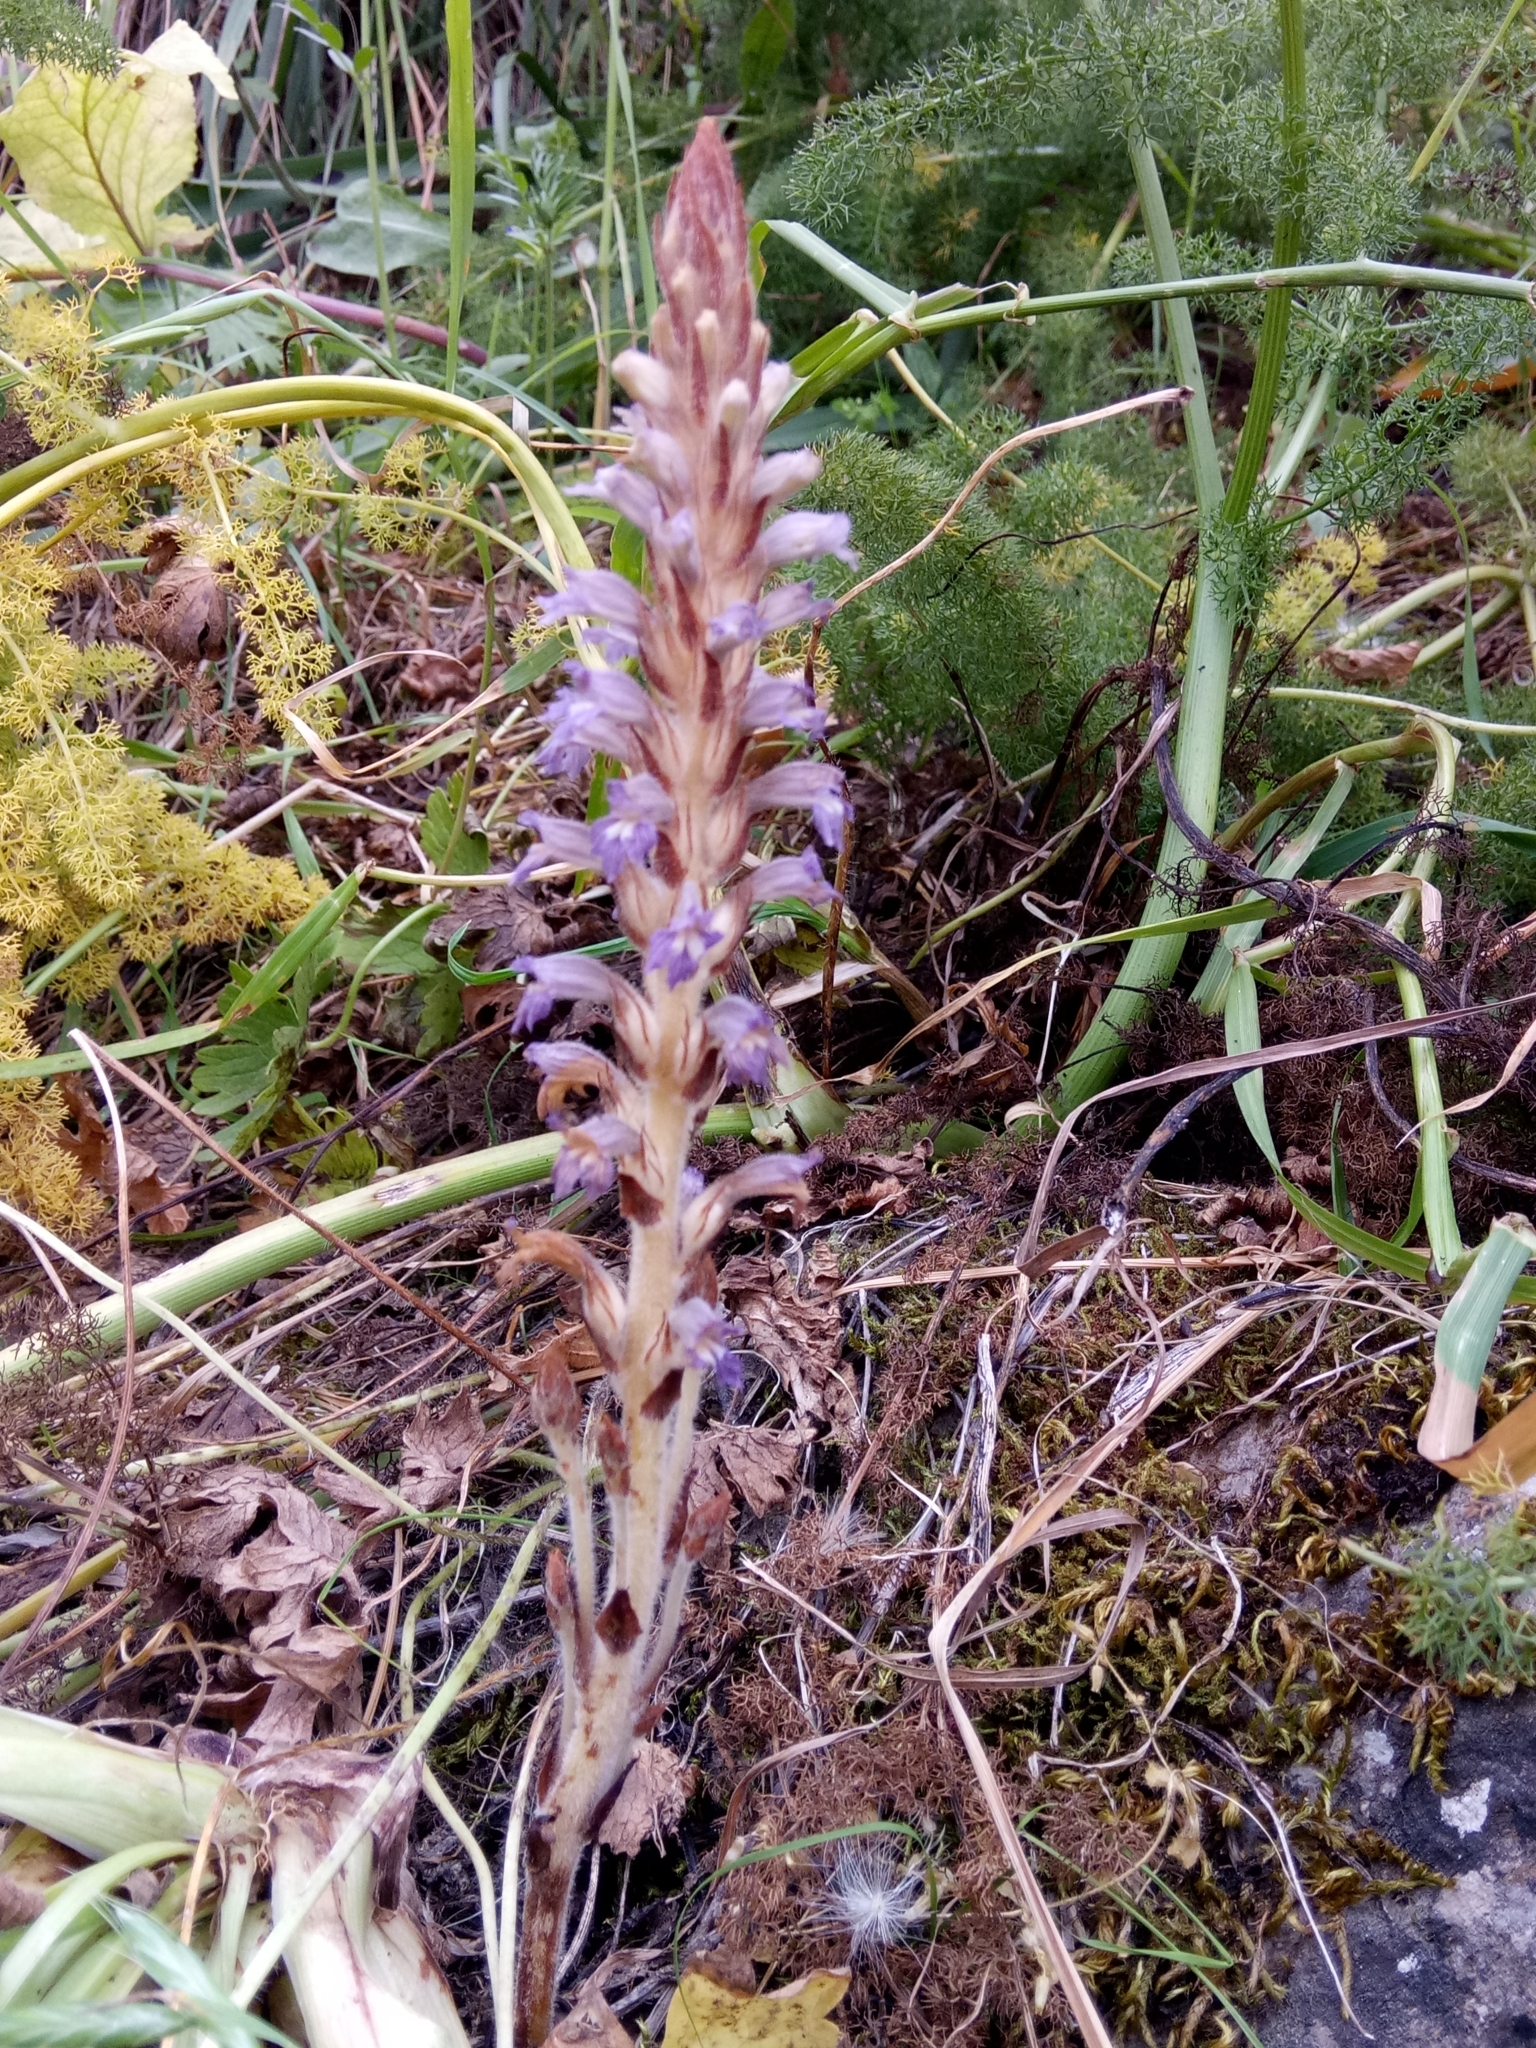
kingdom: Plantae
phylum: Tracheophyta
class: Magnoliopsida
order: Lamiales
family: Orobanchaceae
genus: Phelipanche
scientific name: Phelipanche schultzii
